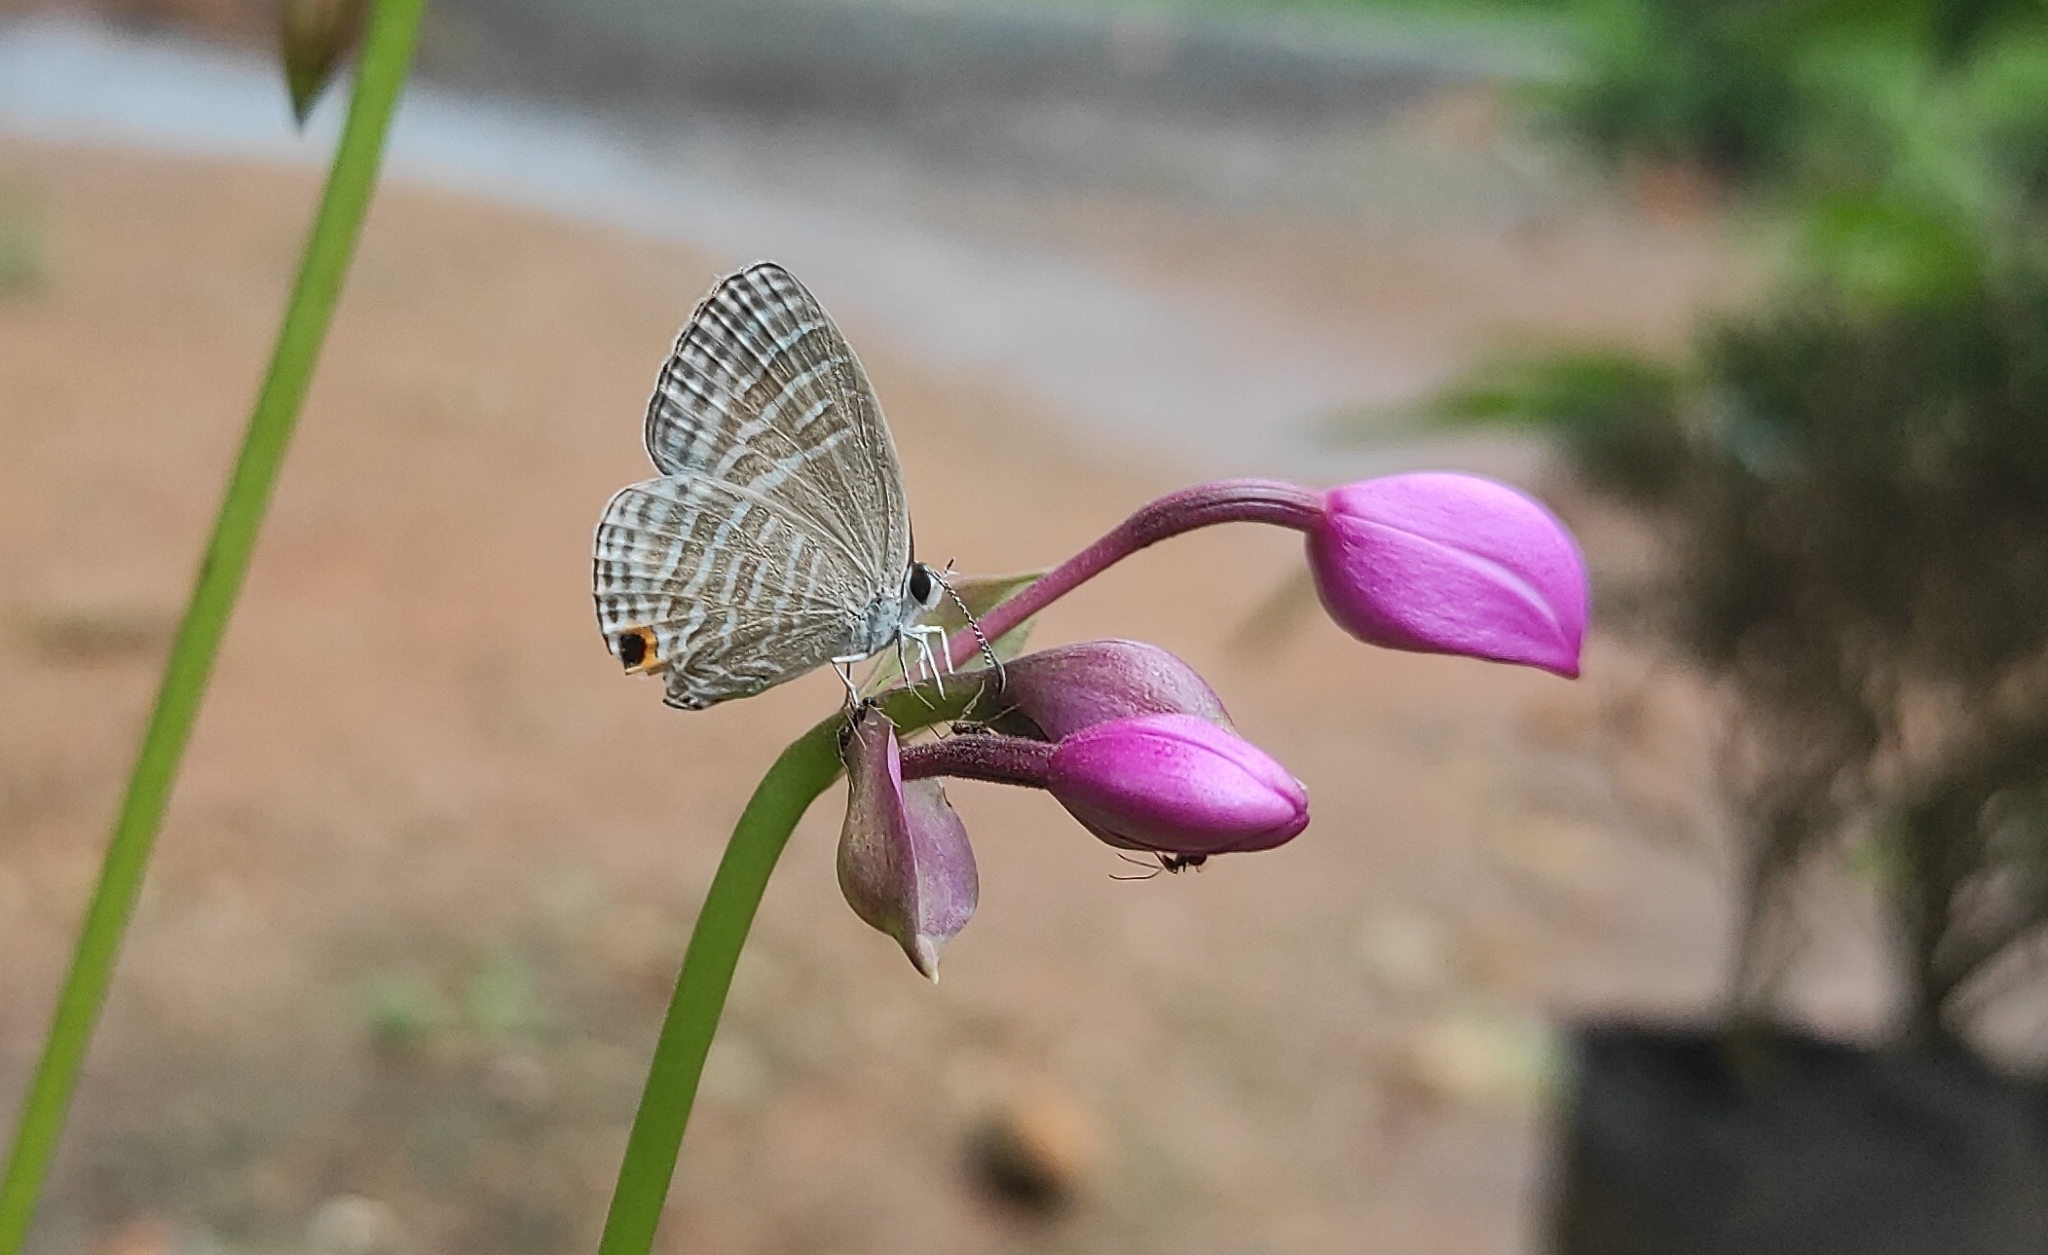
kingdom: Animalia
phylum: Arthropoda
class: Insecta
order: Lepidoptera
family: Lycaenidae
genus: Jamides
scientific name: Jamides celeno
